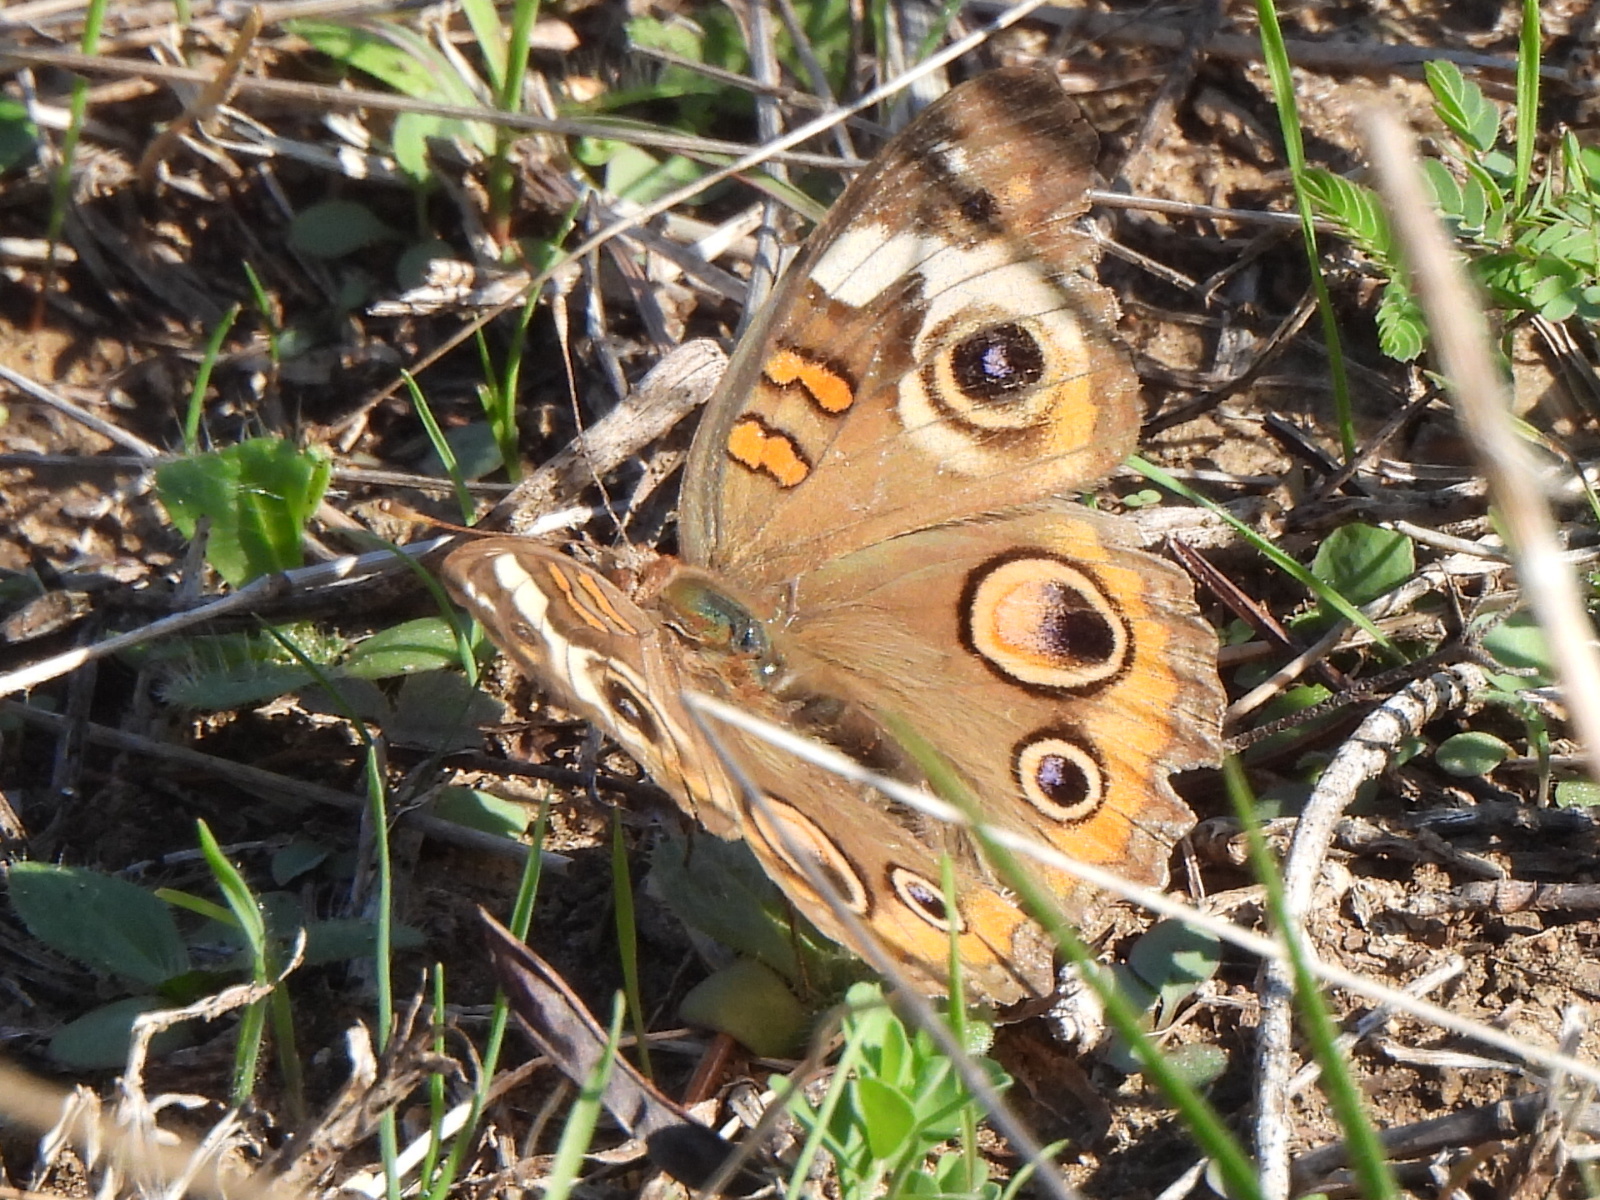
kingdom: Animalia
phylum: Arthropoda
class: Insecta
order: Lepidoptera
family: Nymphalidae
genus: Junonia
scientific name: Junonia coenia
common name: Common buckeye
